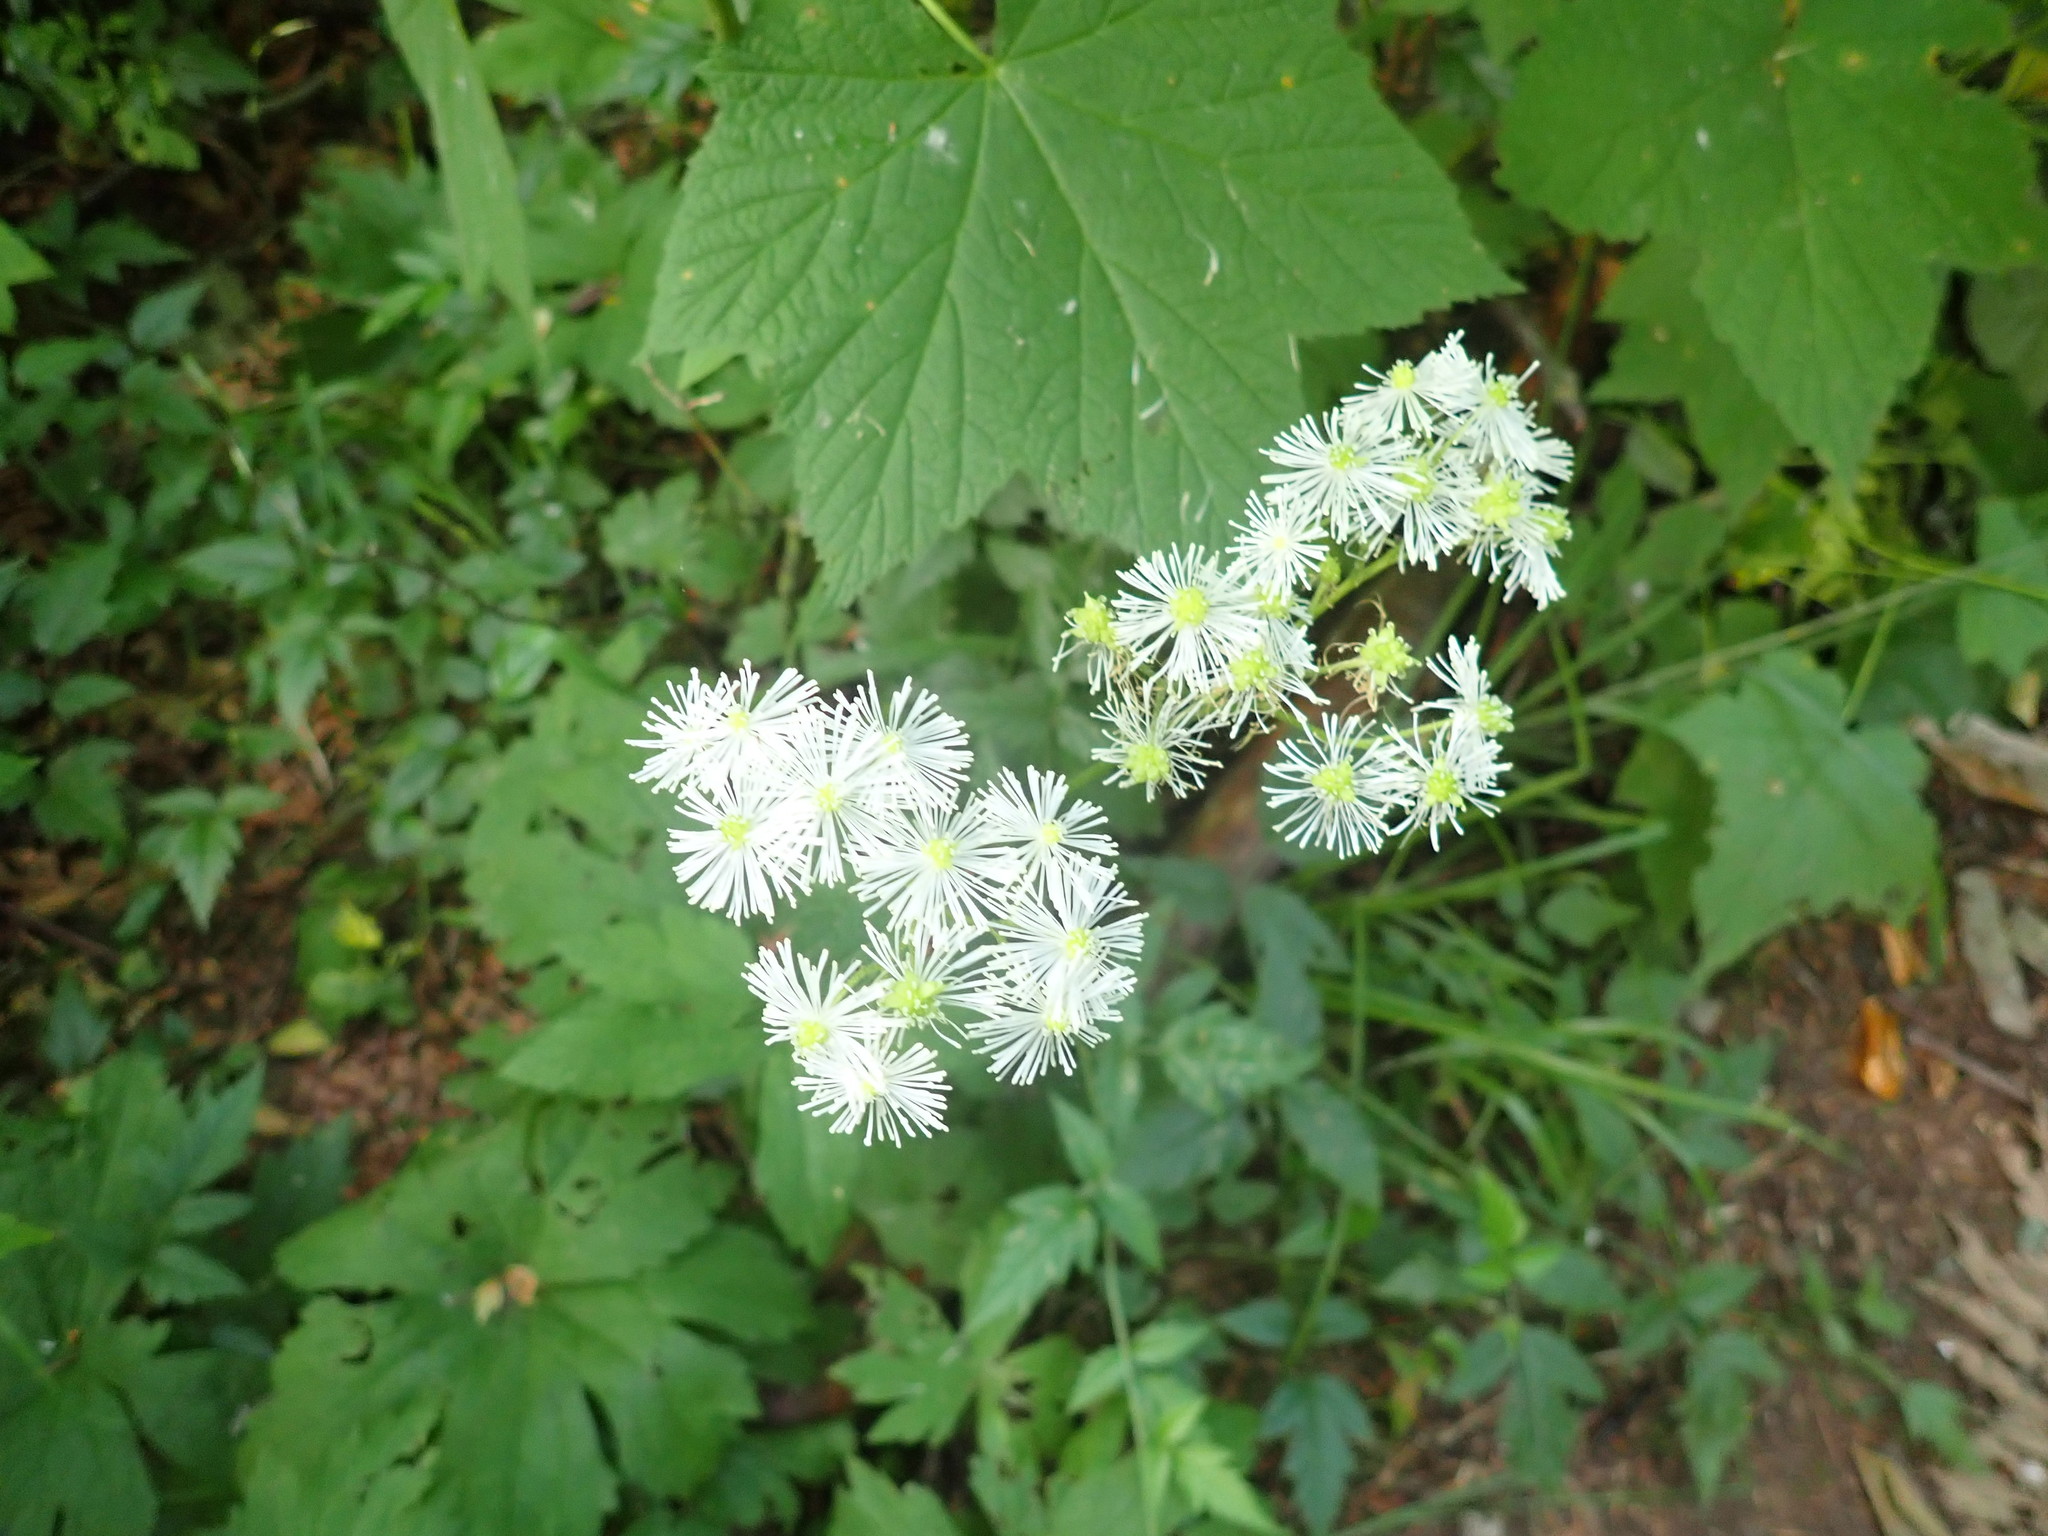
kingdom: Plantae
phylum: Tracheophyta
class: Magnoliopsida
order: Ranunculales
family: Ranunculaceae
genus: Trautvetteria
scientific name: Trautvetteria carolinensis
